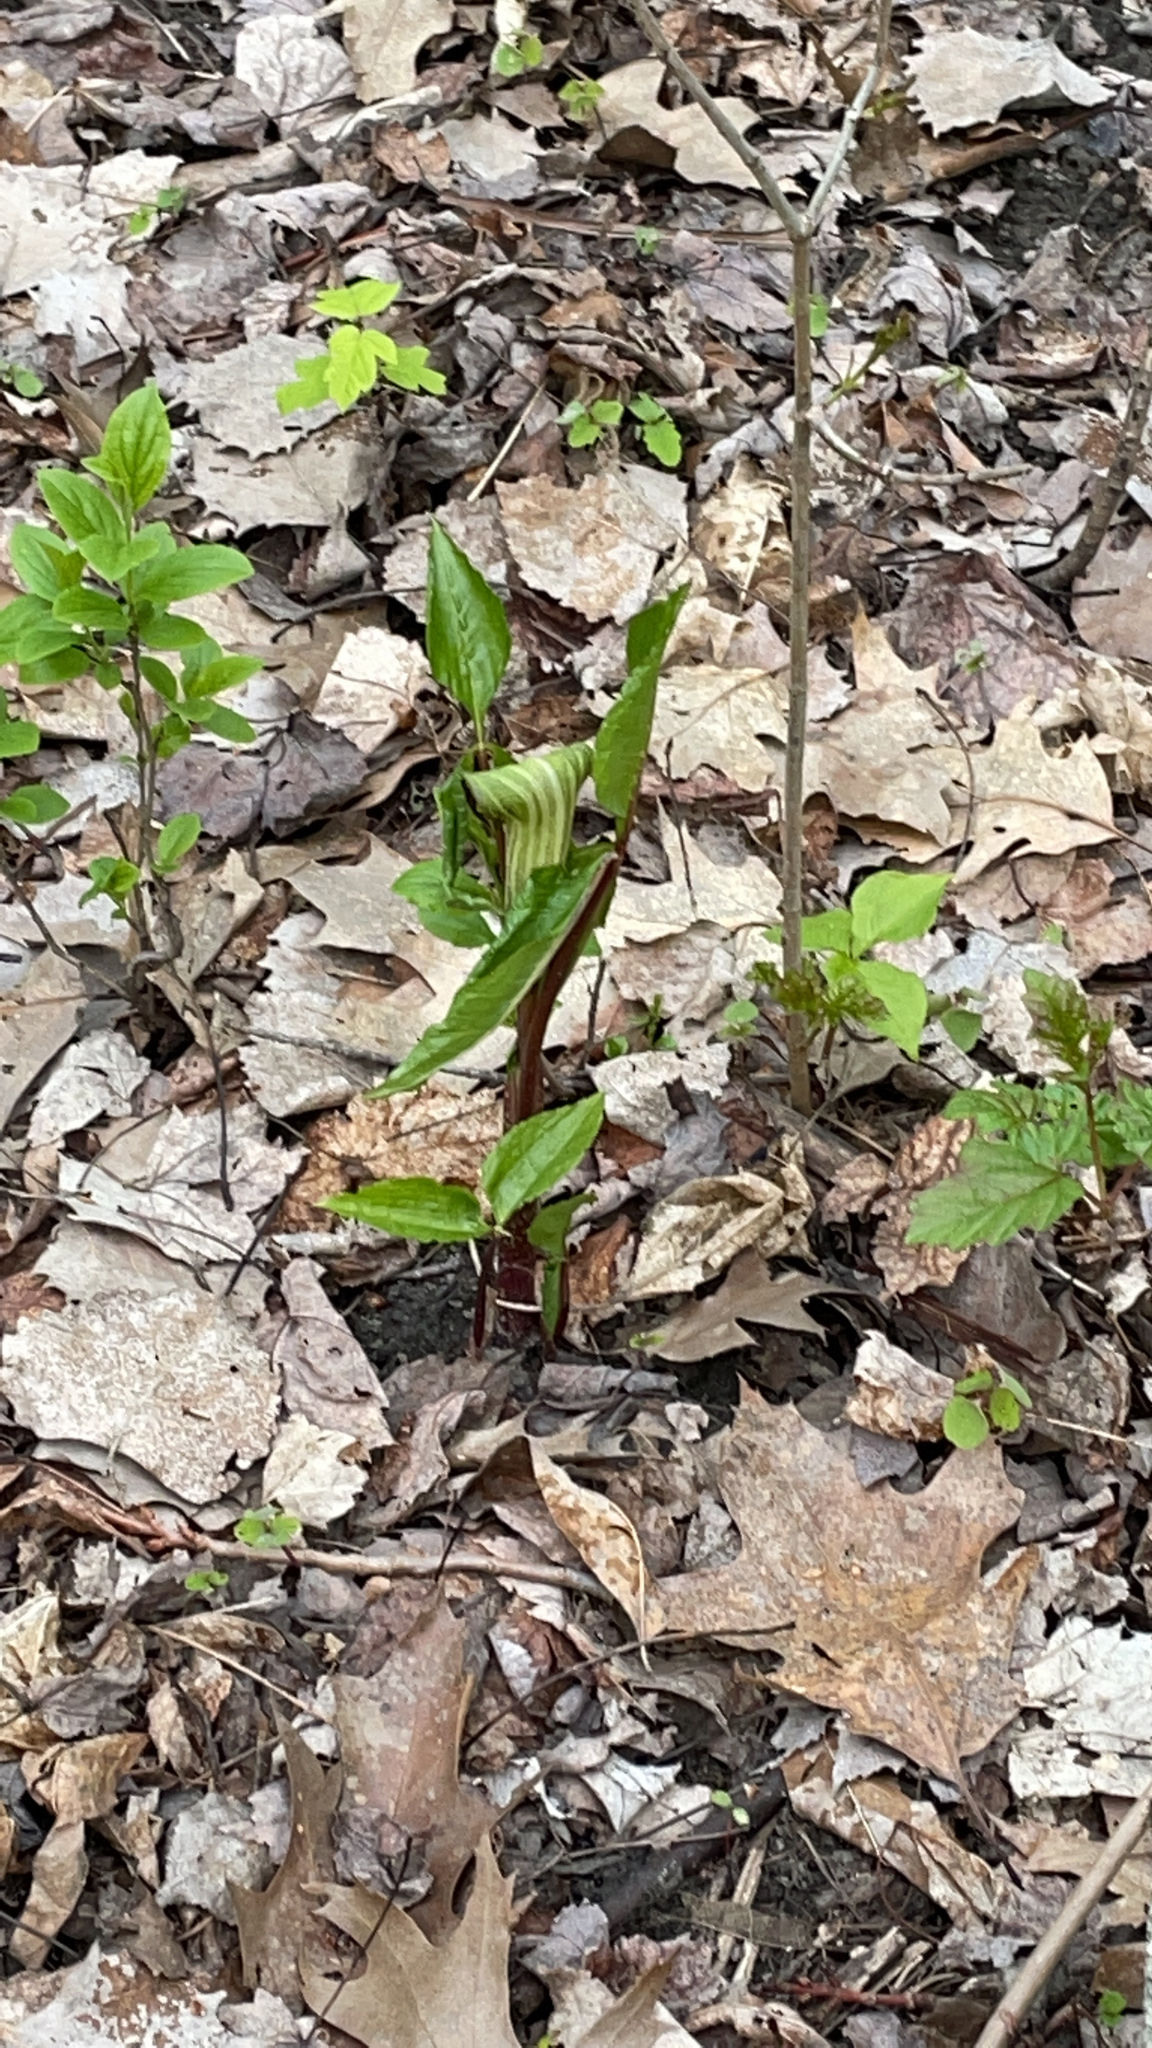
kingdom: Plantae
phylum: Tracheophyta
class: Liliopsida
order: Alismatales
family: Araceae
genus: Arisaema
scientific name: Arisaema triphyllum
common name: Jack-in-the-pulpit
